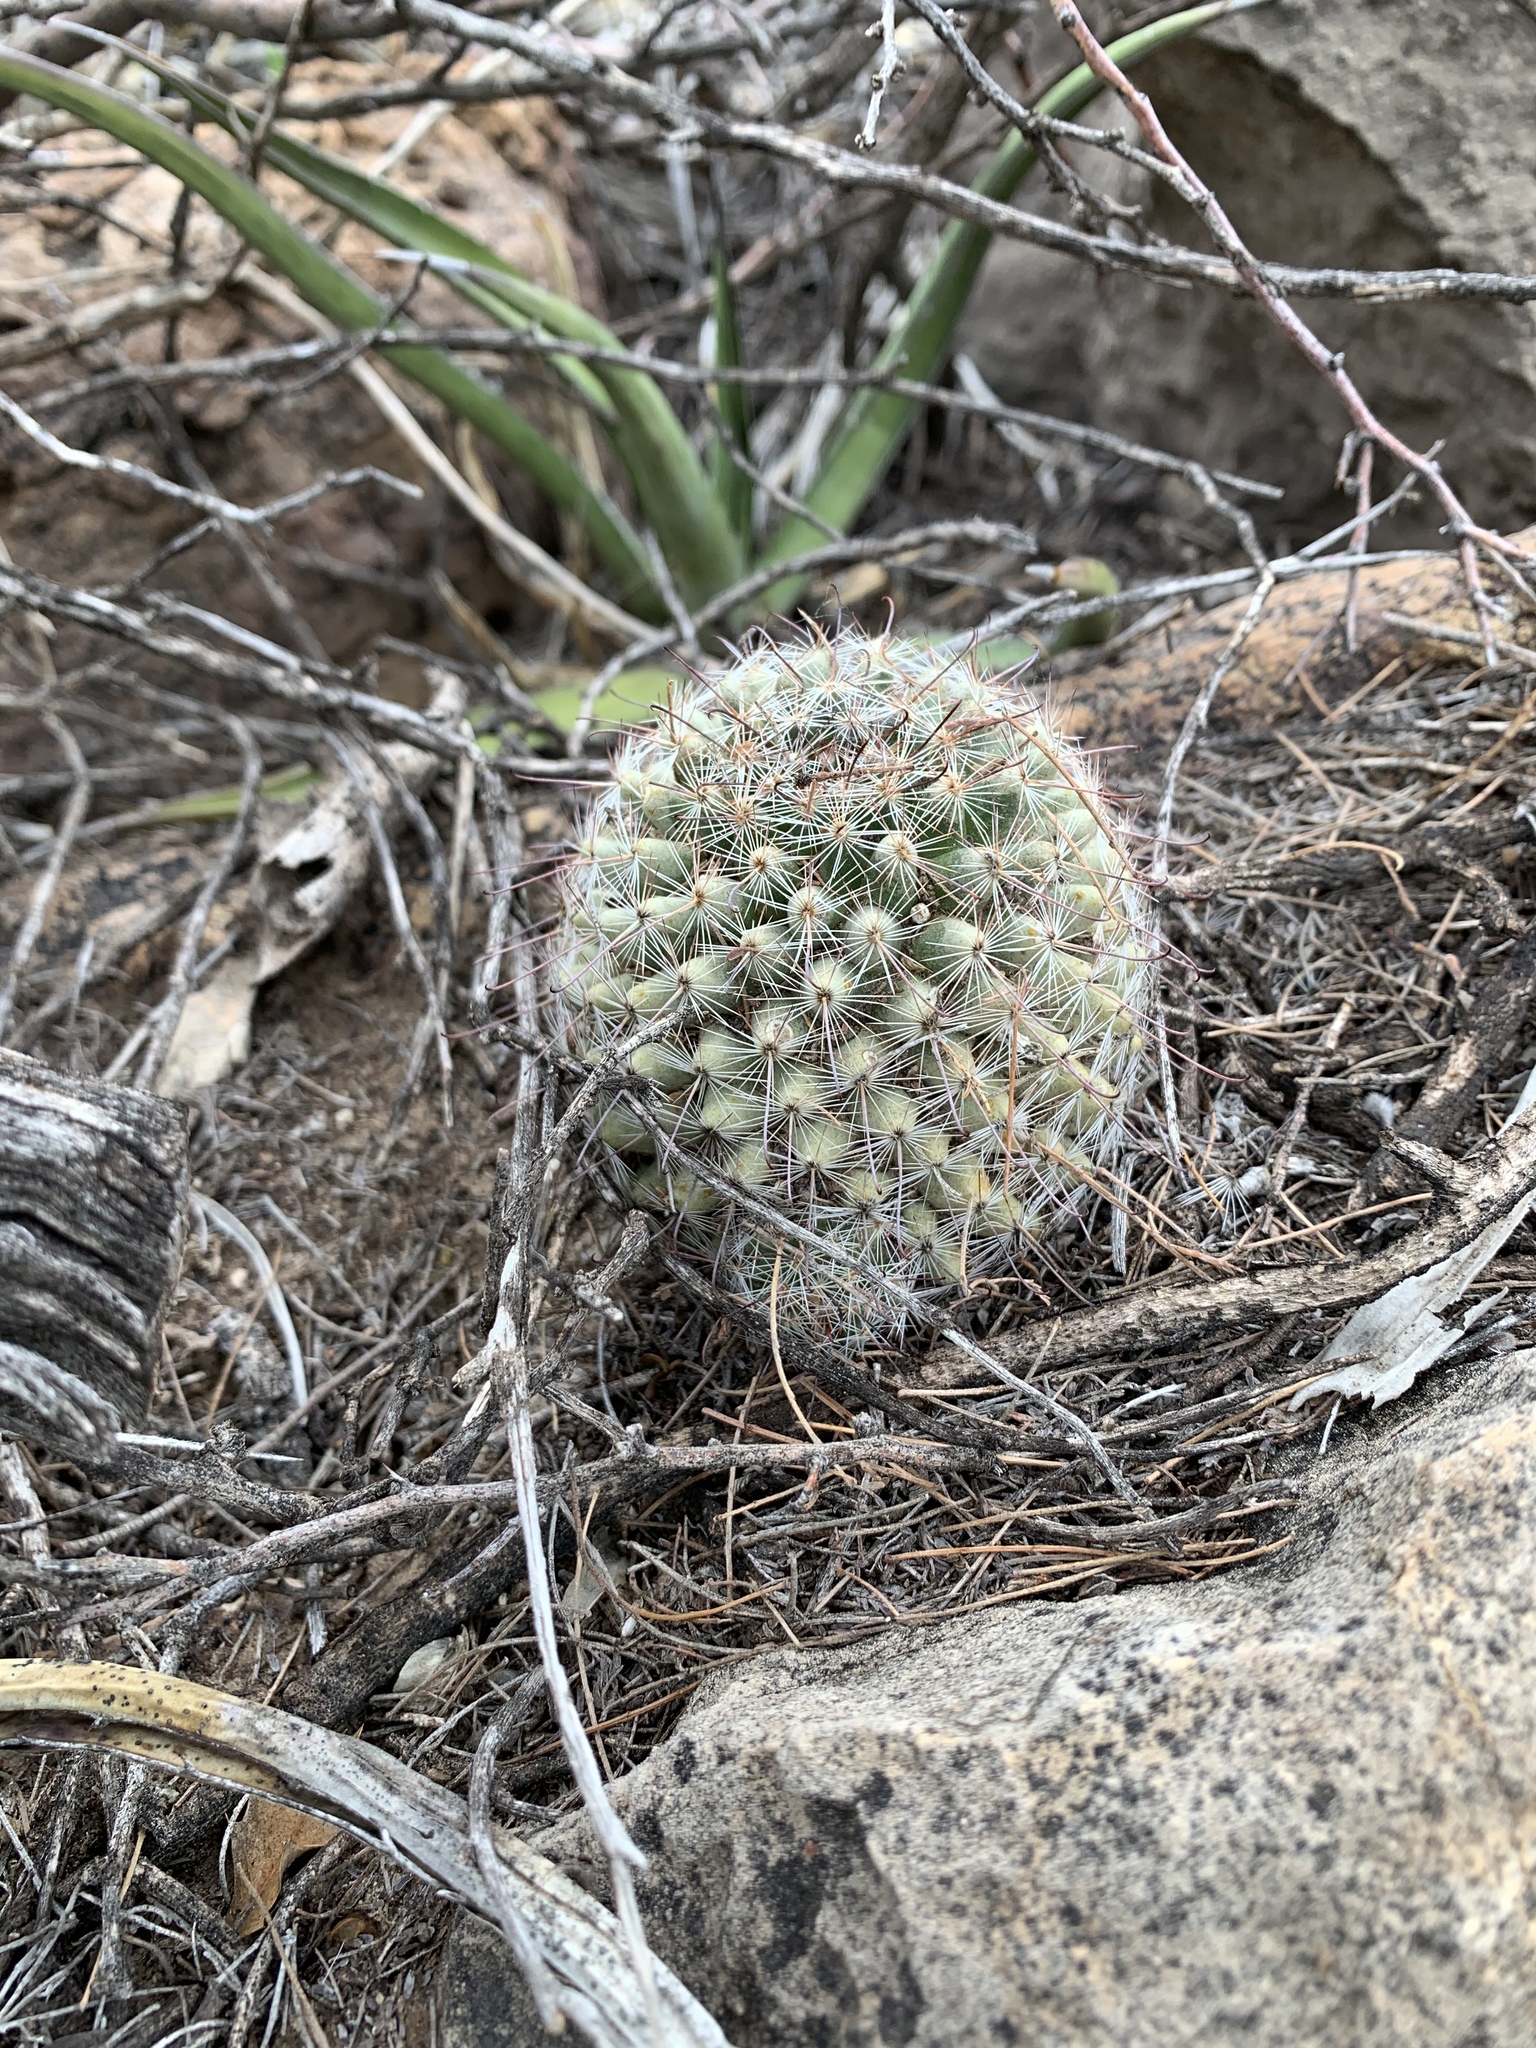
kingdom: Plantae
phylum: Tracheophyta
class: Magnoliopsida
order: Caryophyllales
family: Cactaceae
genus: Cochemiea
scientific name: Cochemiea grahamii
